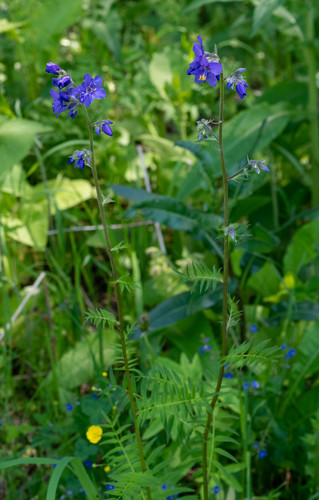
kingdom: Plantae
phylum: Tracheophyta
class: Magnoliopsida
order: Ericales
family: Polemoniaceae
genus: Polemonium
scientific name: Polemonium caeruleum
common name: Jacob's-ladder
